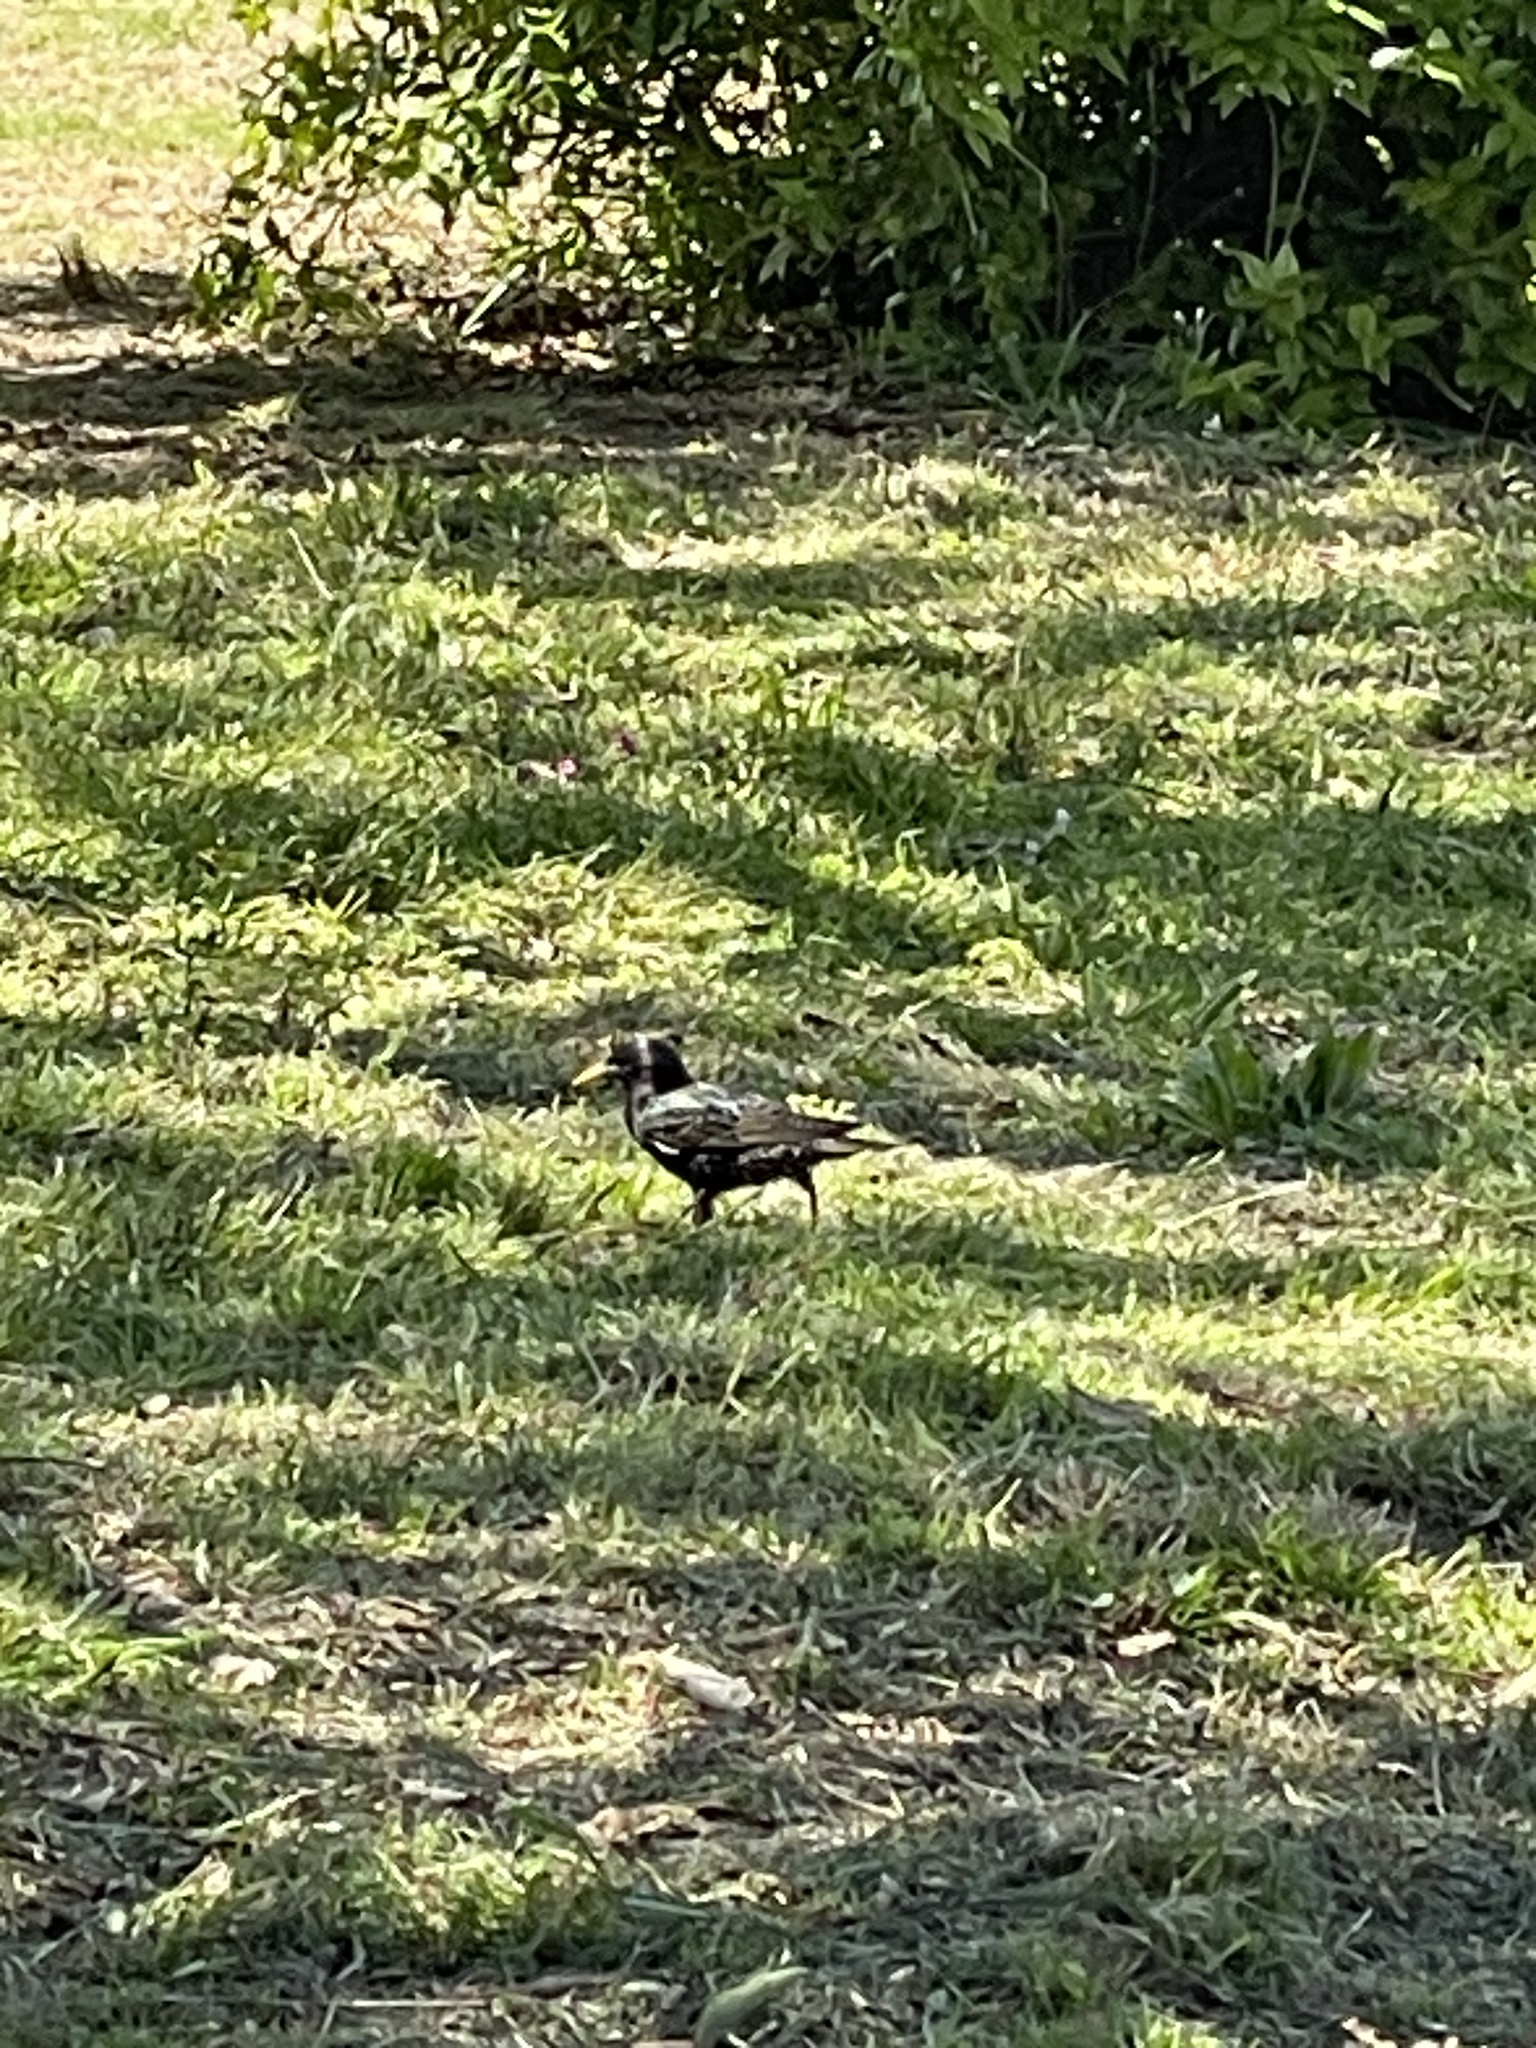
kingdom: Animalia
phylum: Chordata
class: Aves
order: Passeriformes
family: Sturnidae
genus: Sturnus
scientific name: Sturnus vulgaris
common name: Common starling
